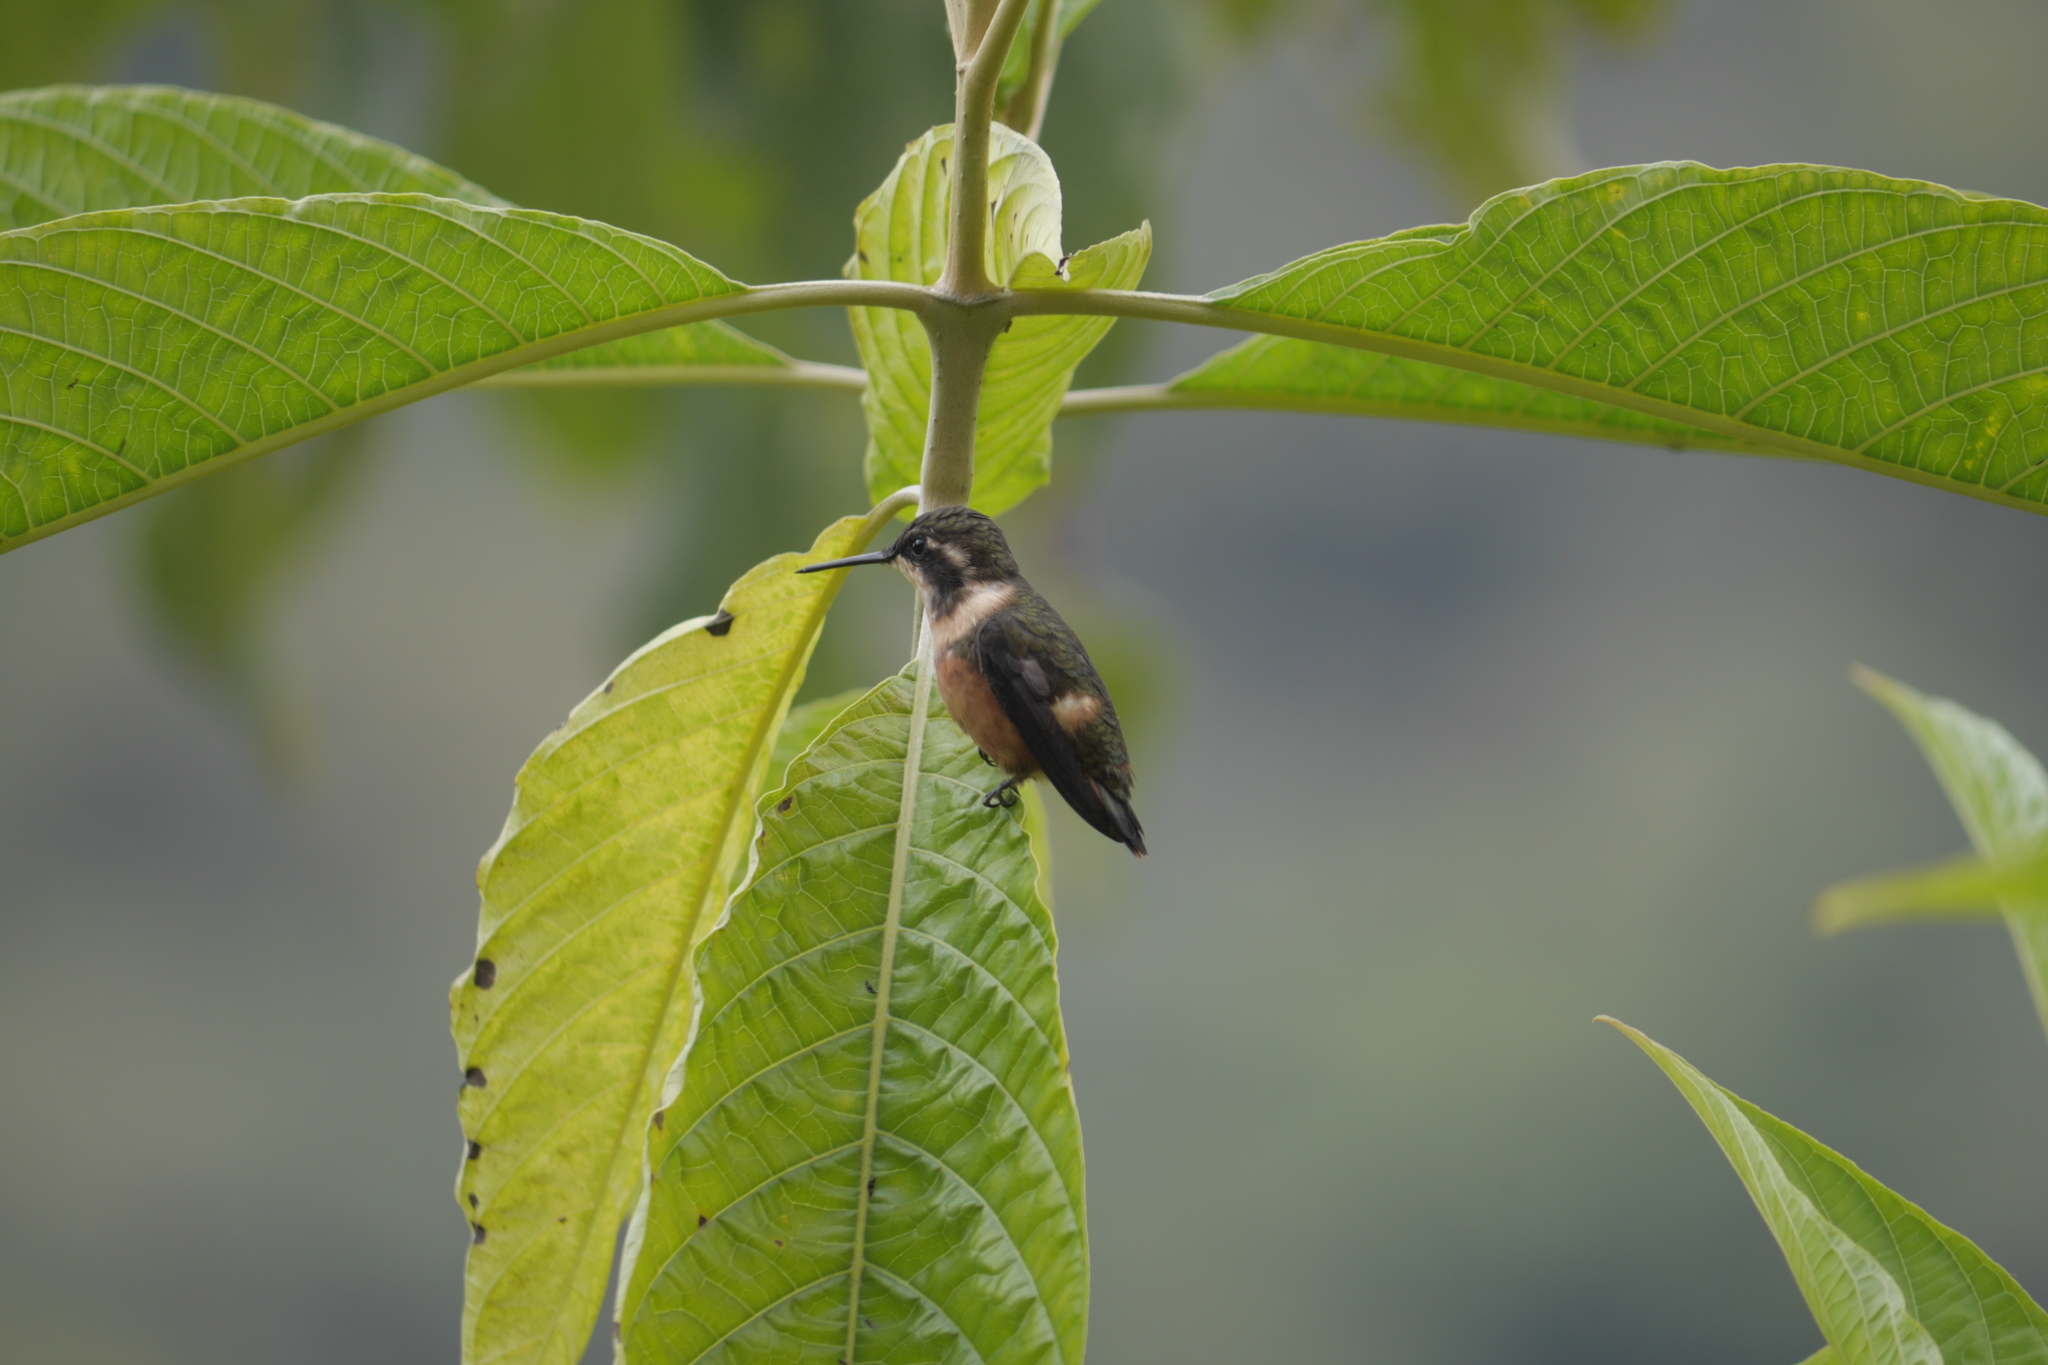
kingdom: Animalia
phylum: Chordata
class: Aves
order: Apodiformes
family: Trochilidae
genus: Calliphlox
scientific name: Calliphlox mitchellii
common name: Purple-throated woodstar
